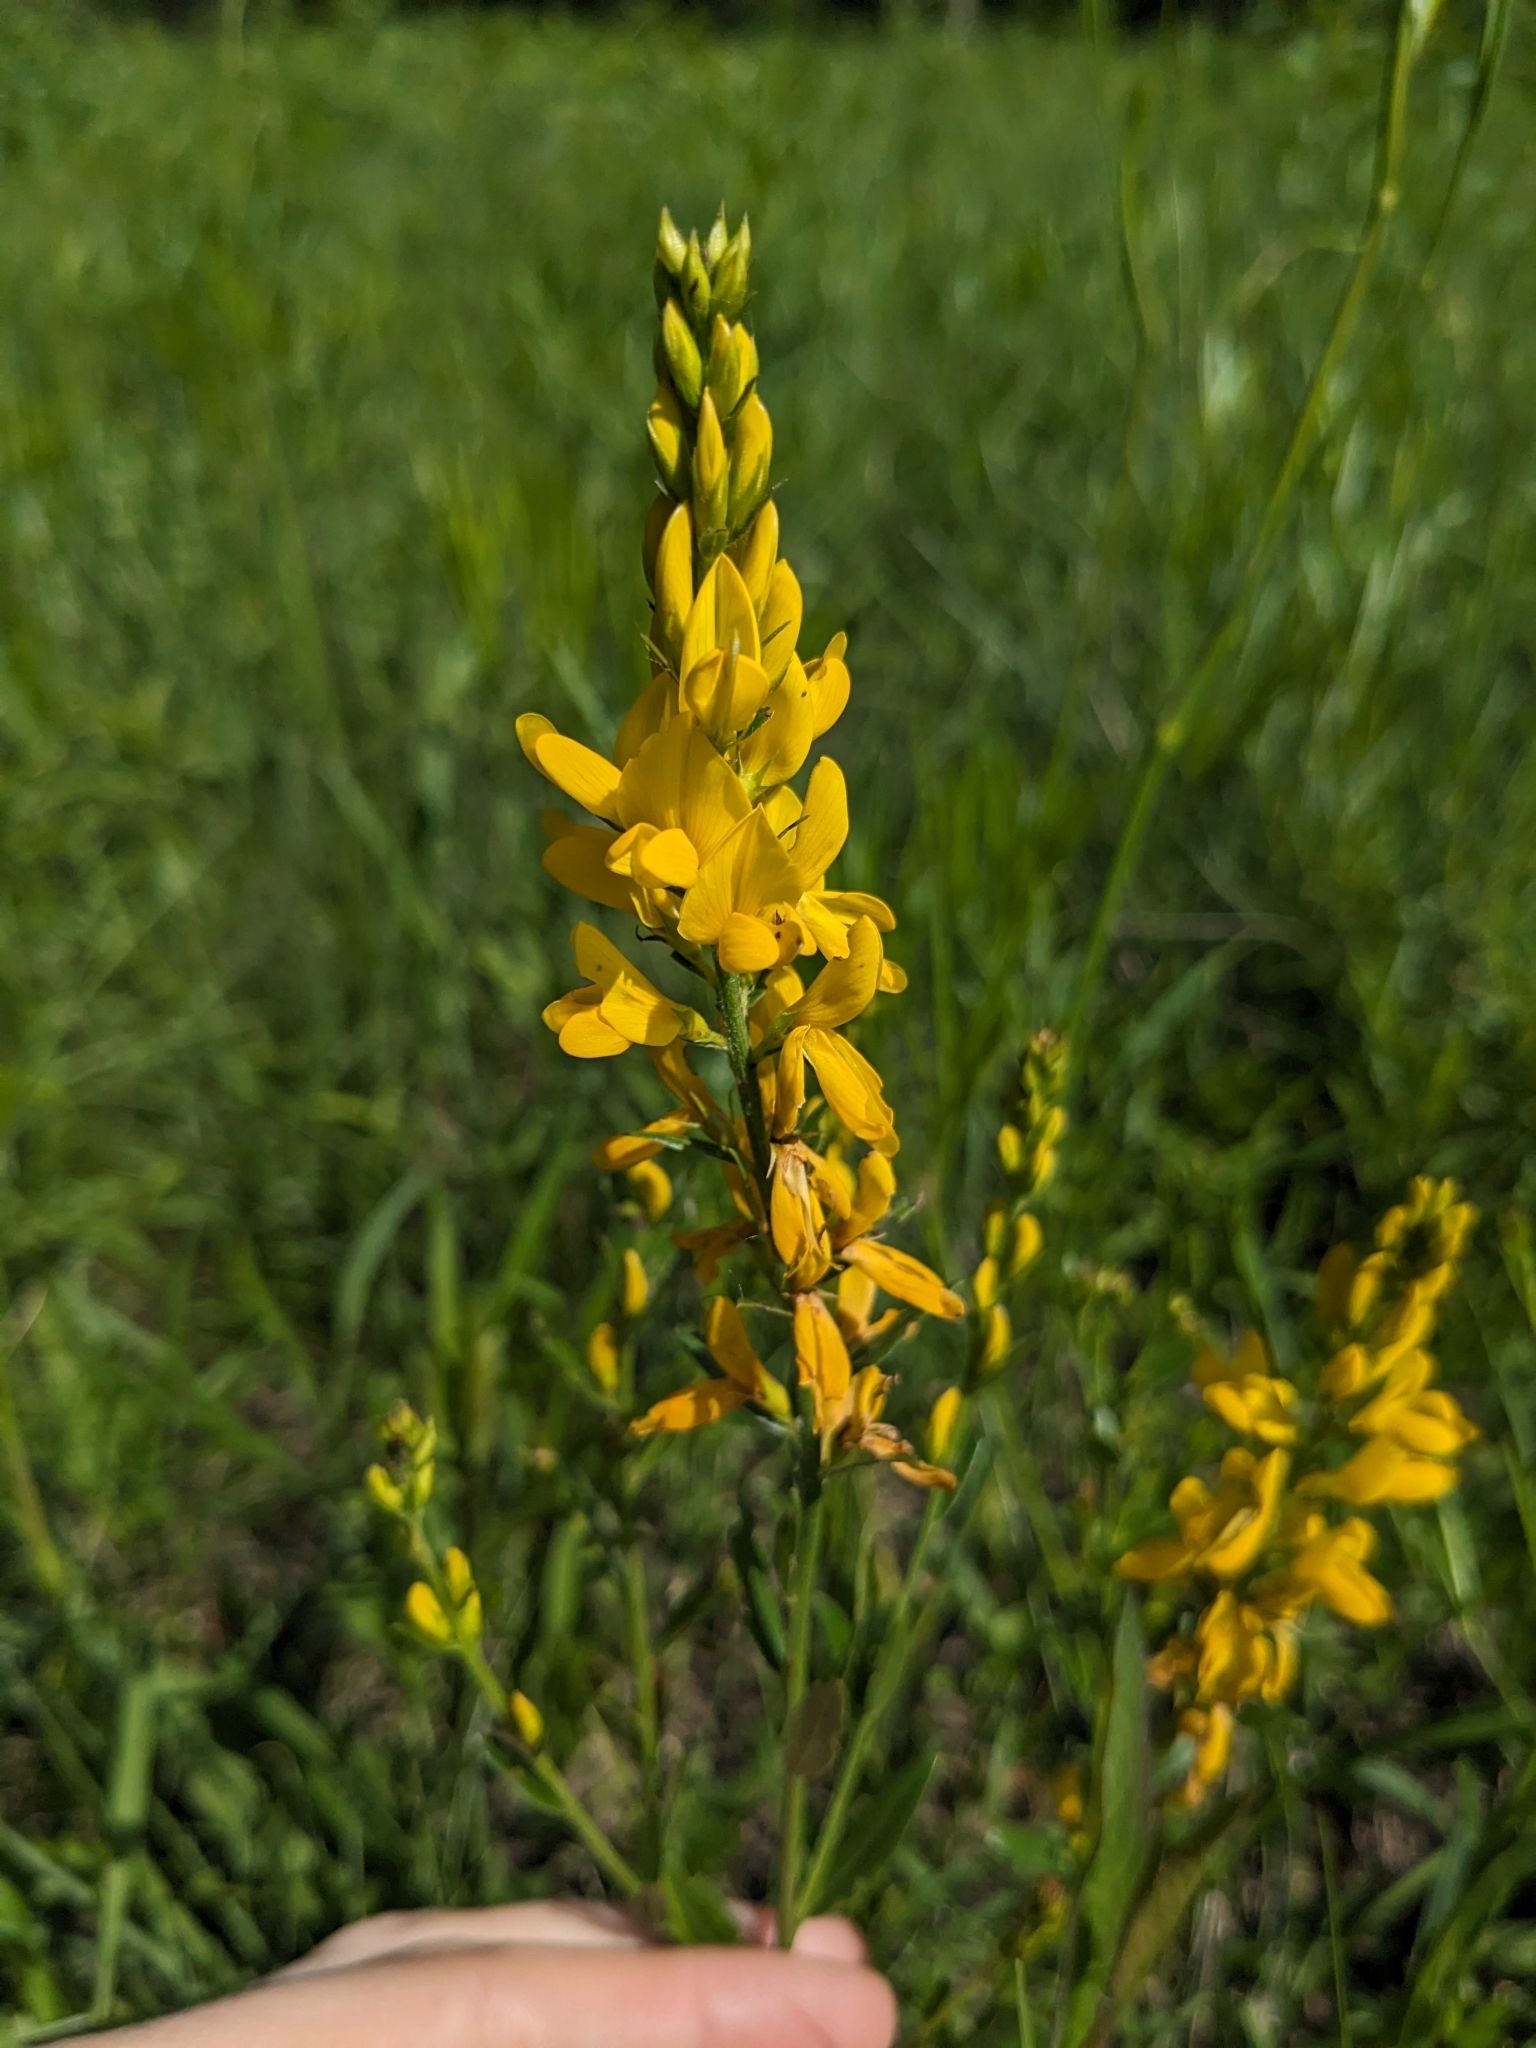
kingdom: Plantae
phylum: Tracheophyta
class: Magnoliopsida
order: Fabales
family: Fabaceae
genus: Genista
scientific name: Genista tinctoria
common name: Dyer's greenweed
